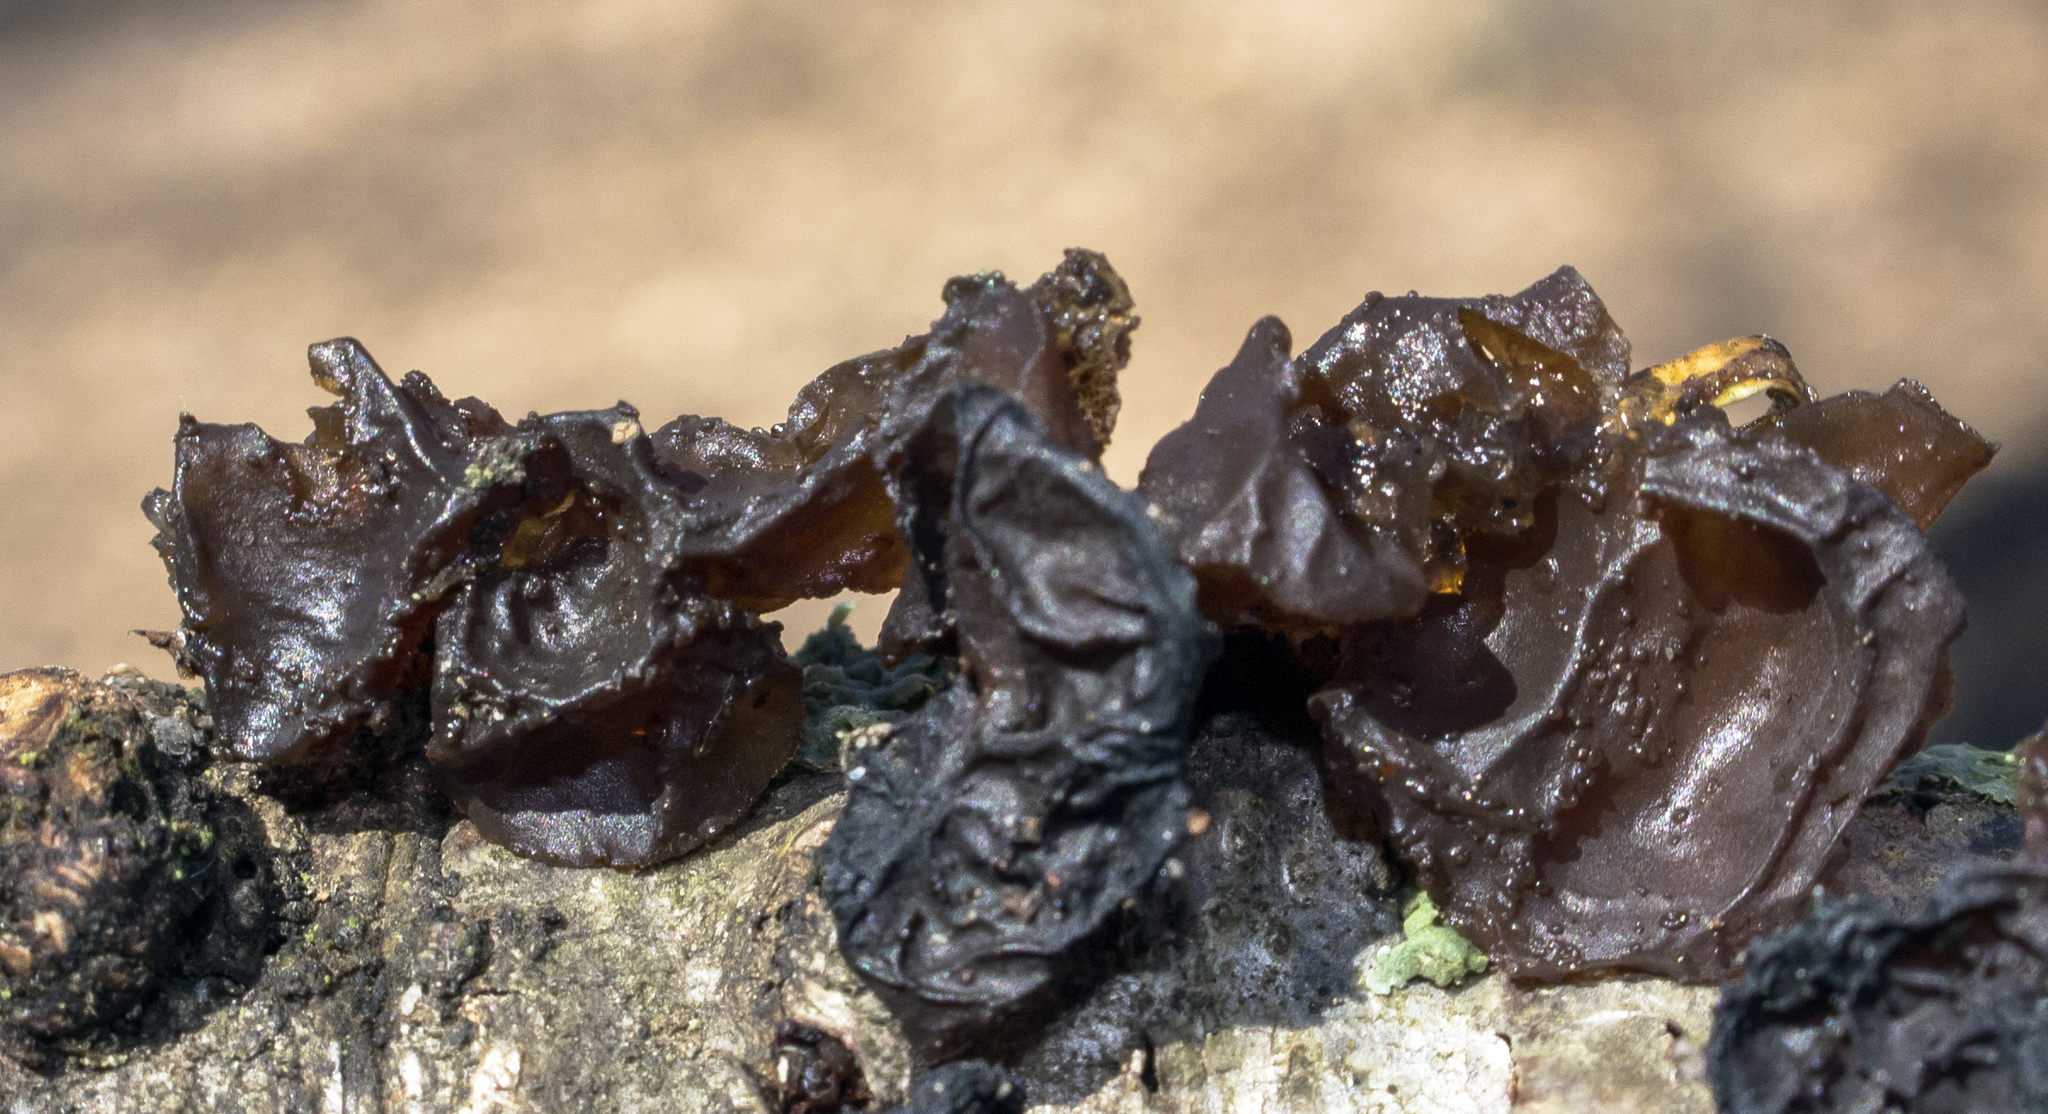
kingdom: Fungi
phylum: Basidiomycota
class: Agaricomycetes
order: Auriculariales
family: Auriculariaceae
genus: Exidia
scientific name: Exidia
